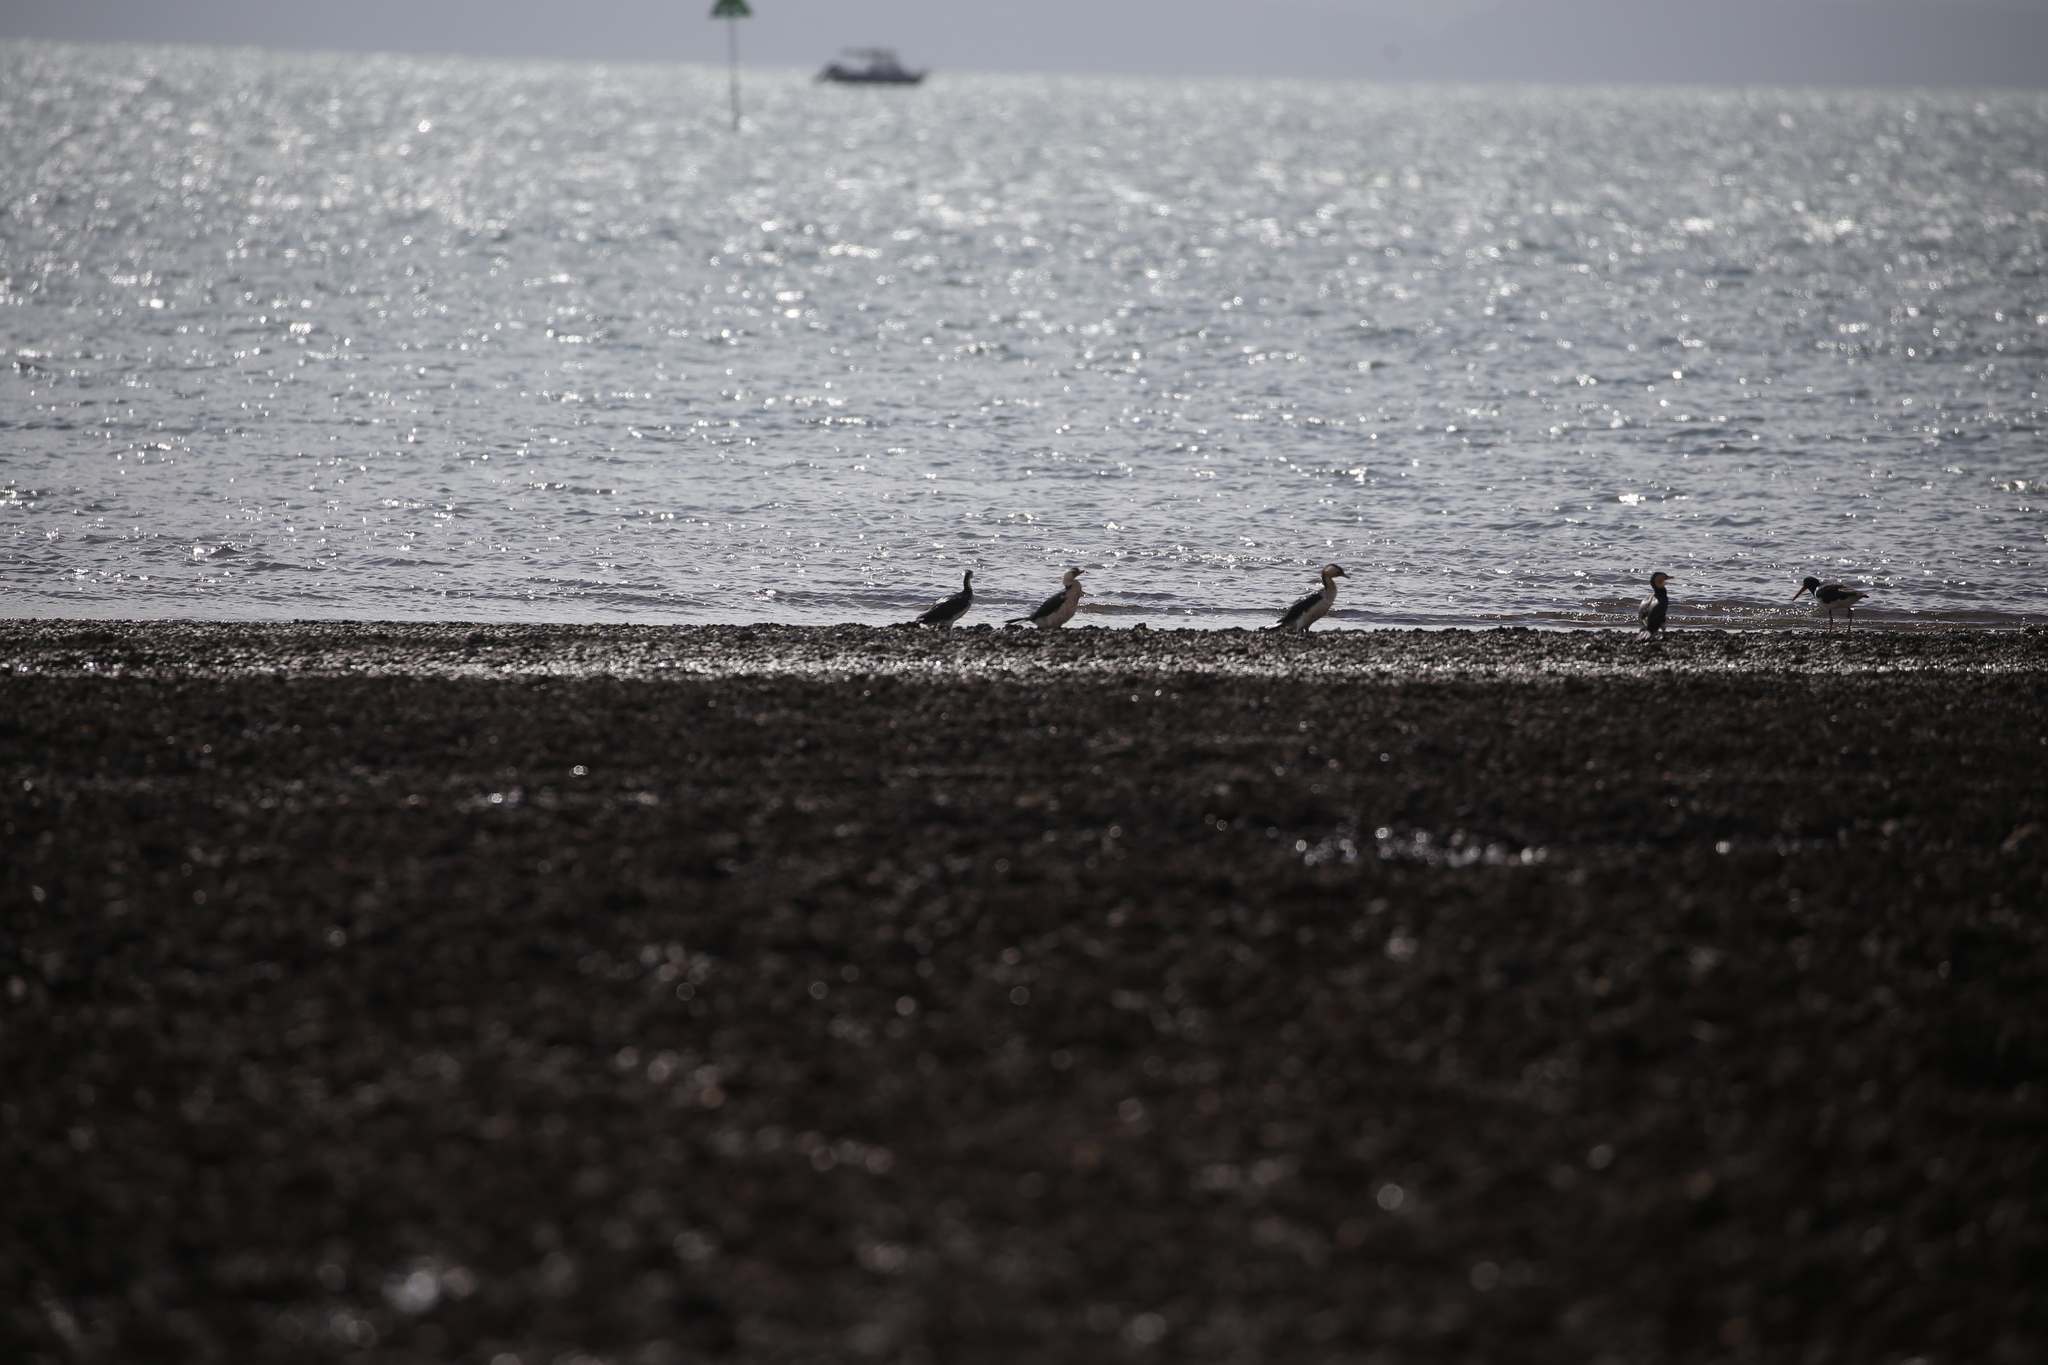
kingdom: Animalia
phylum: Chordata
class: Aves
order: Suliformes
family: Phalacrocoracidae
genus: Microcarbo
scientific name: Microcarbo melanoleucos
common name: Little pied cormorant
